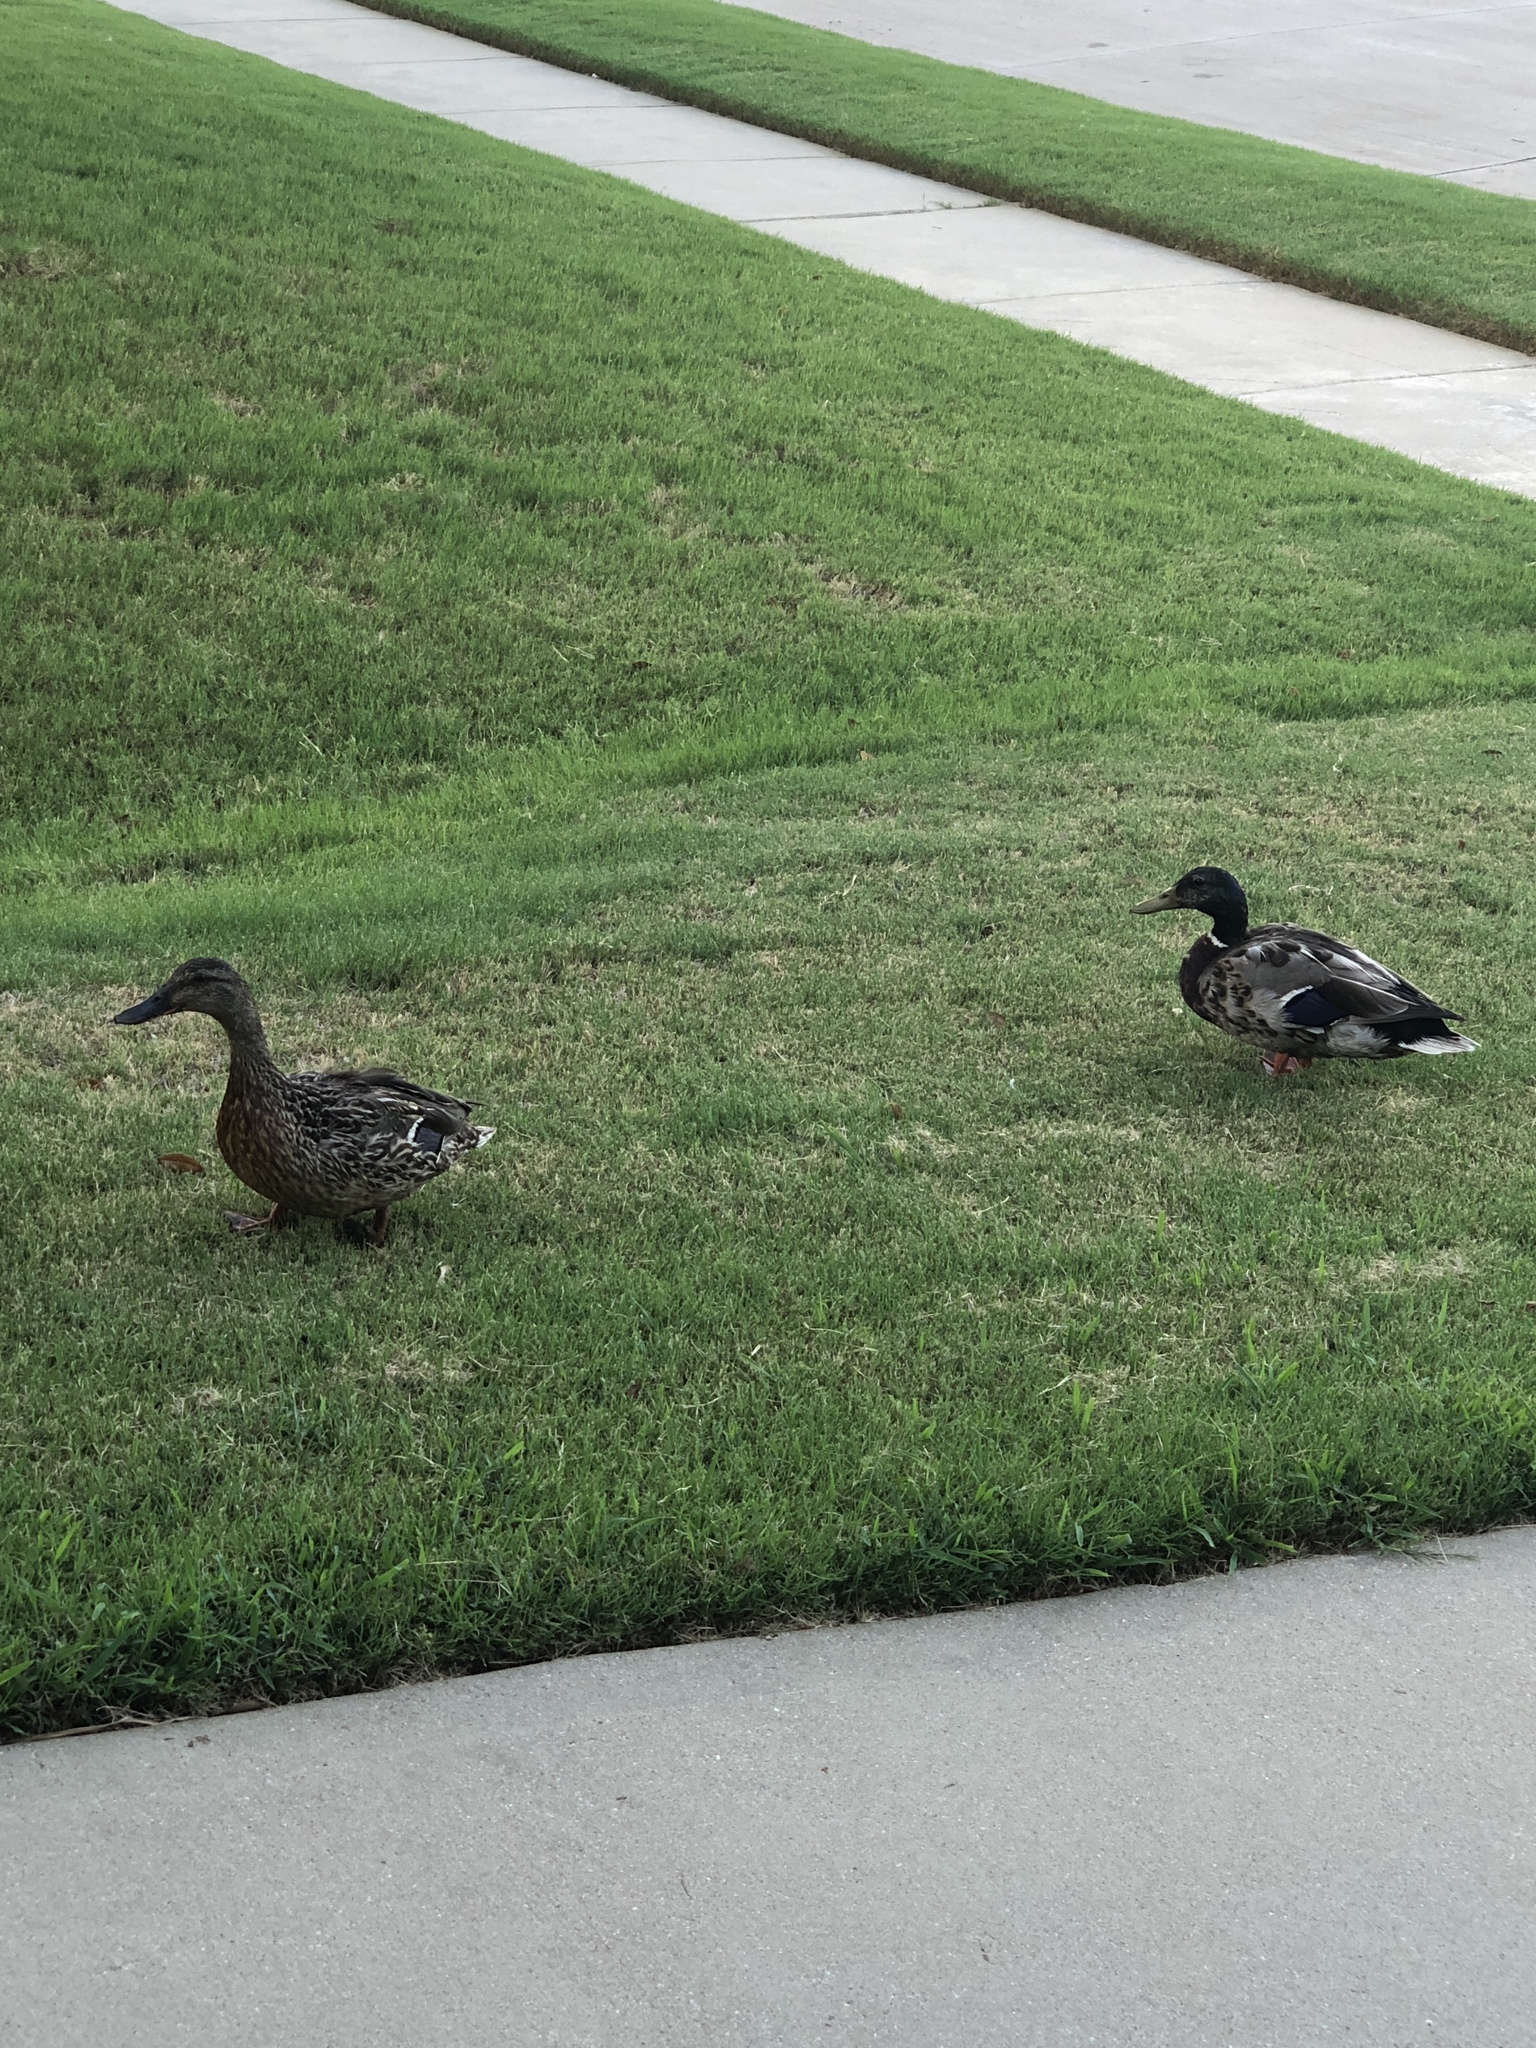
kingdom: Animalia
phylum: Chordata
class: Aves
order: Anseriformes
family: Anatidae
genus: Anas
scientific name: Anas platyrhynchos
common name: Mallard
